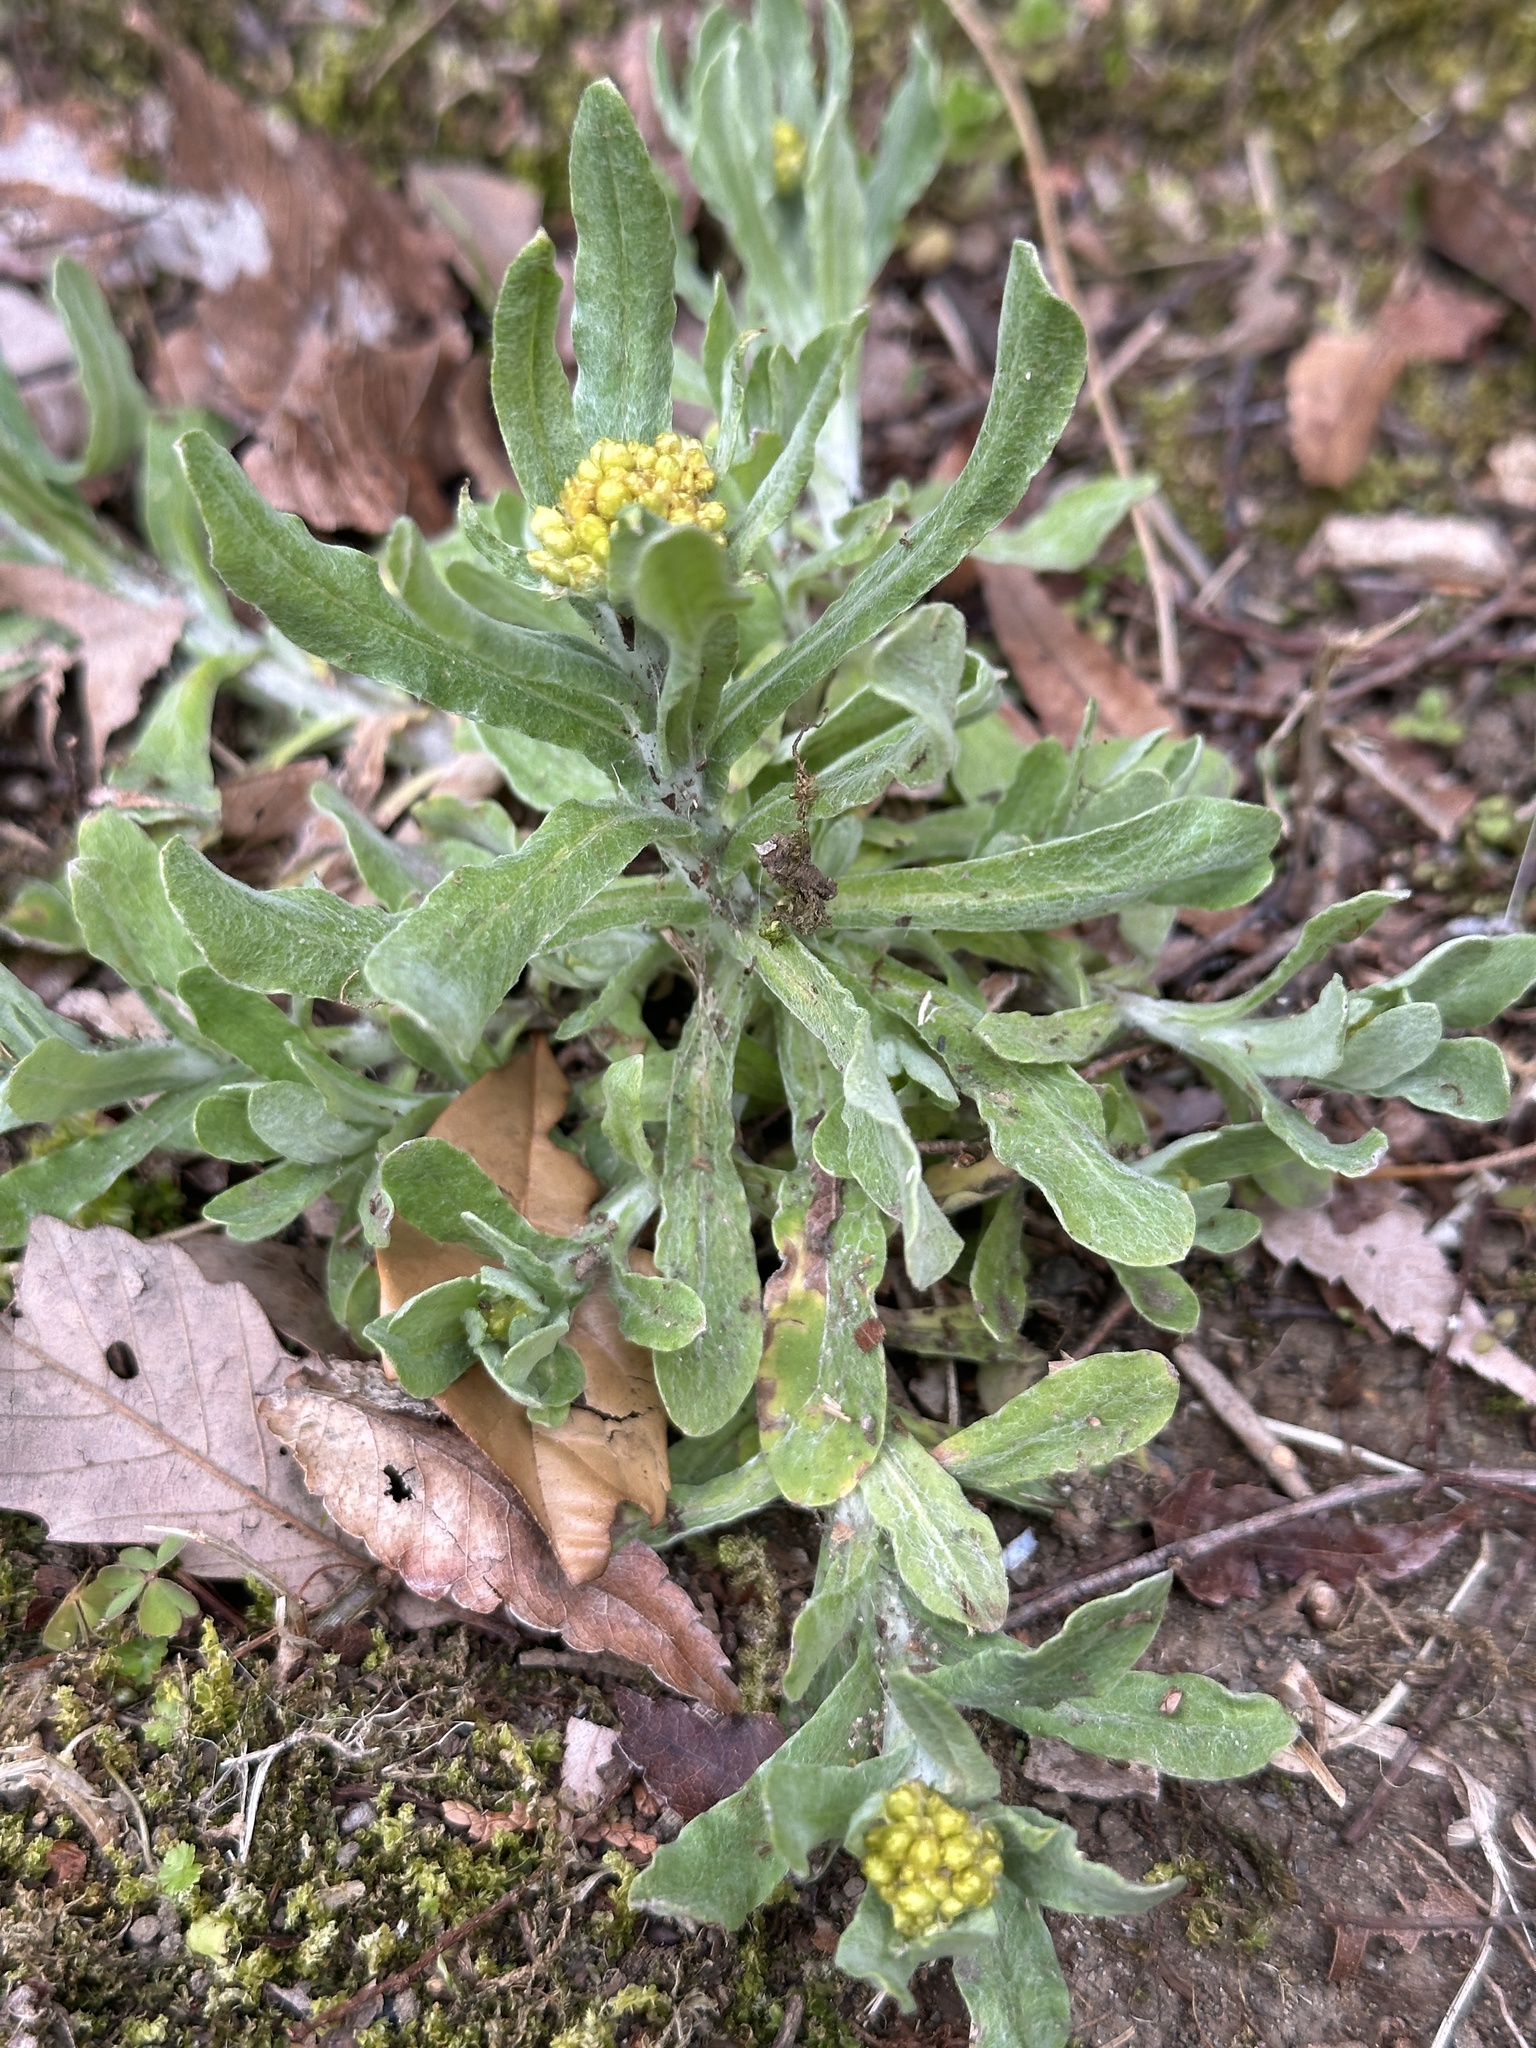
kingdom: Plantae
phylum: Tracheophyta
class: Magnoliopsida
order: Asterales
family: Asteraceae
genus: Pseudognaphalium
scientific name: Pseudognaphalium affine
